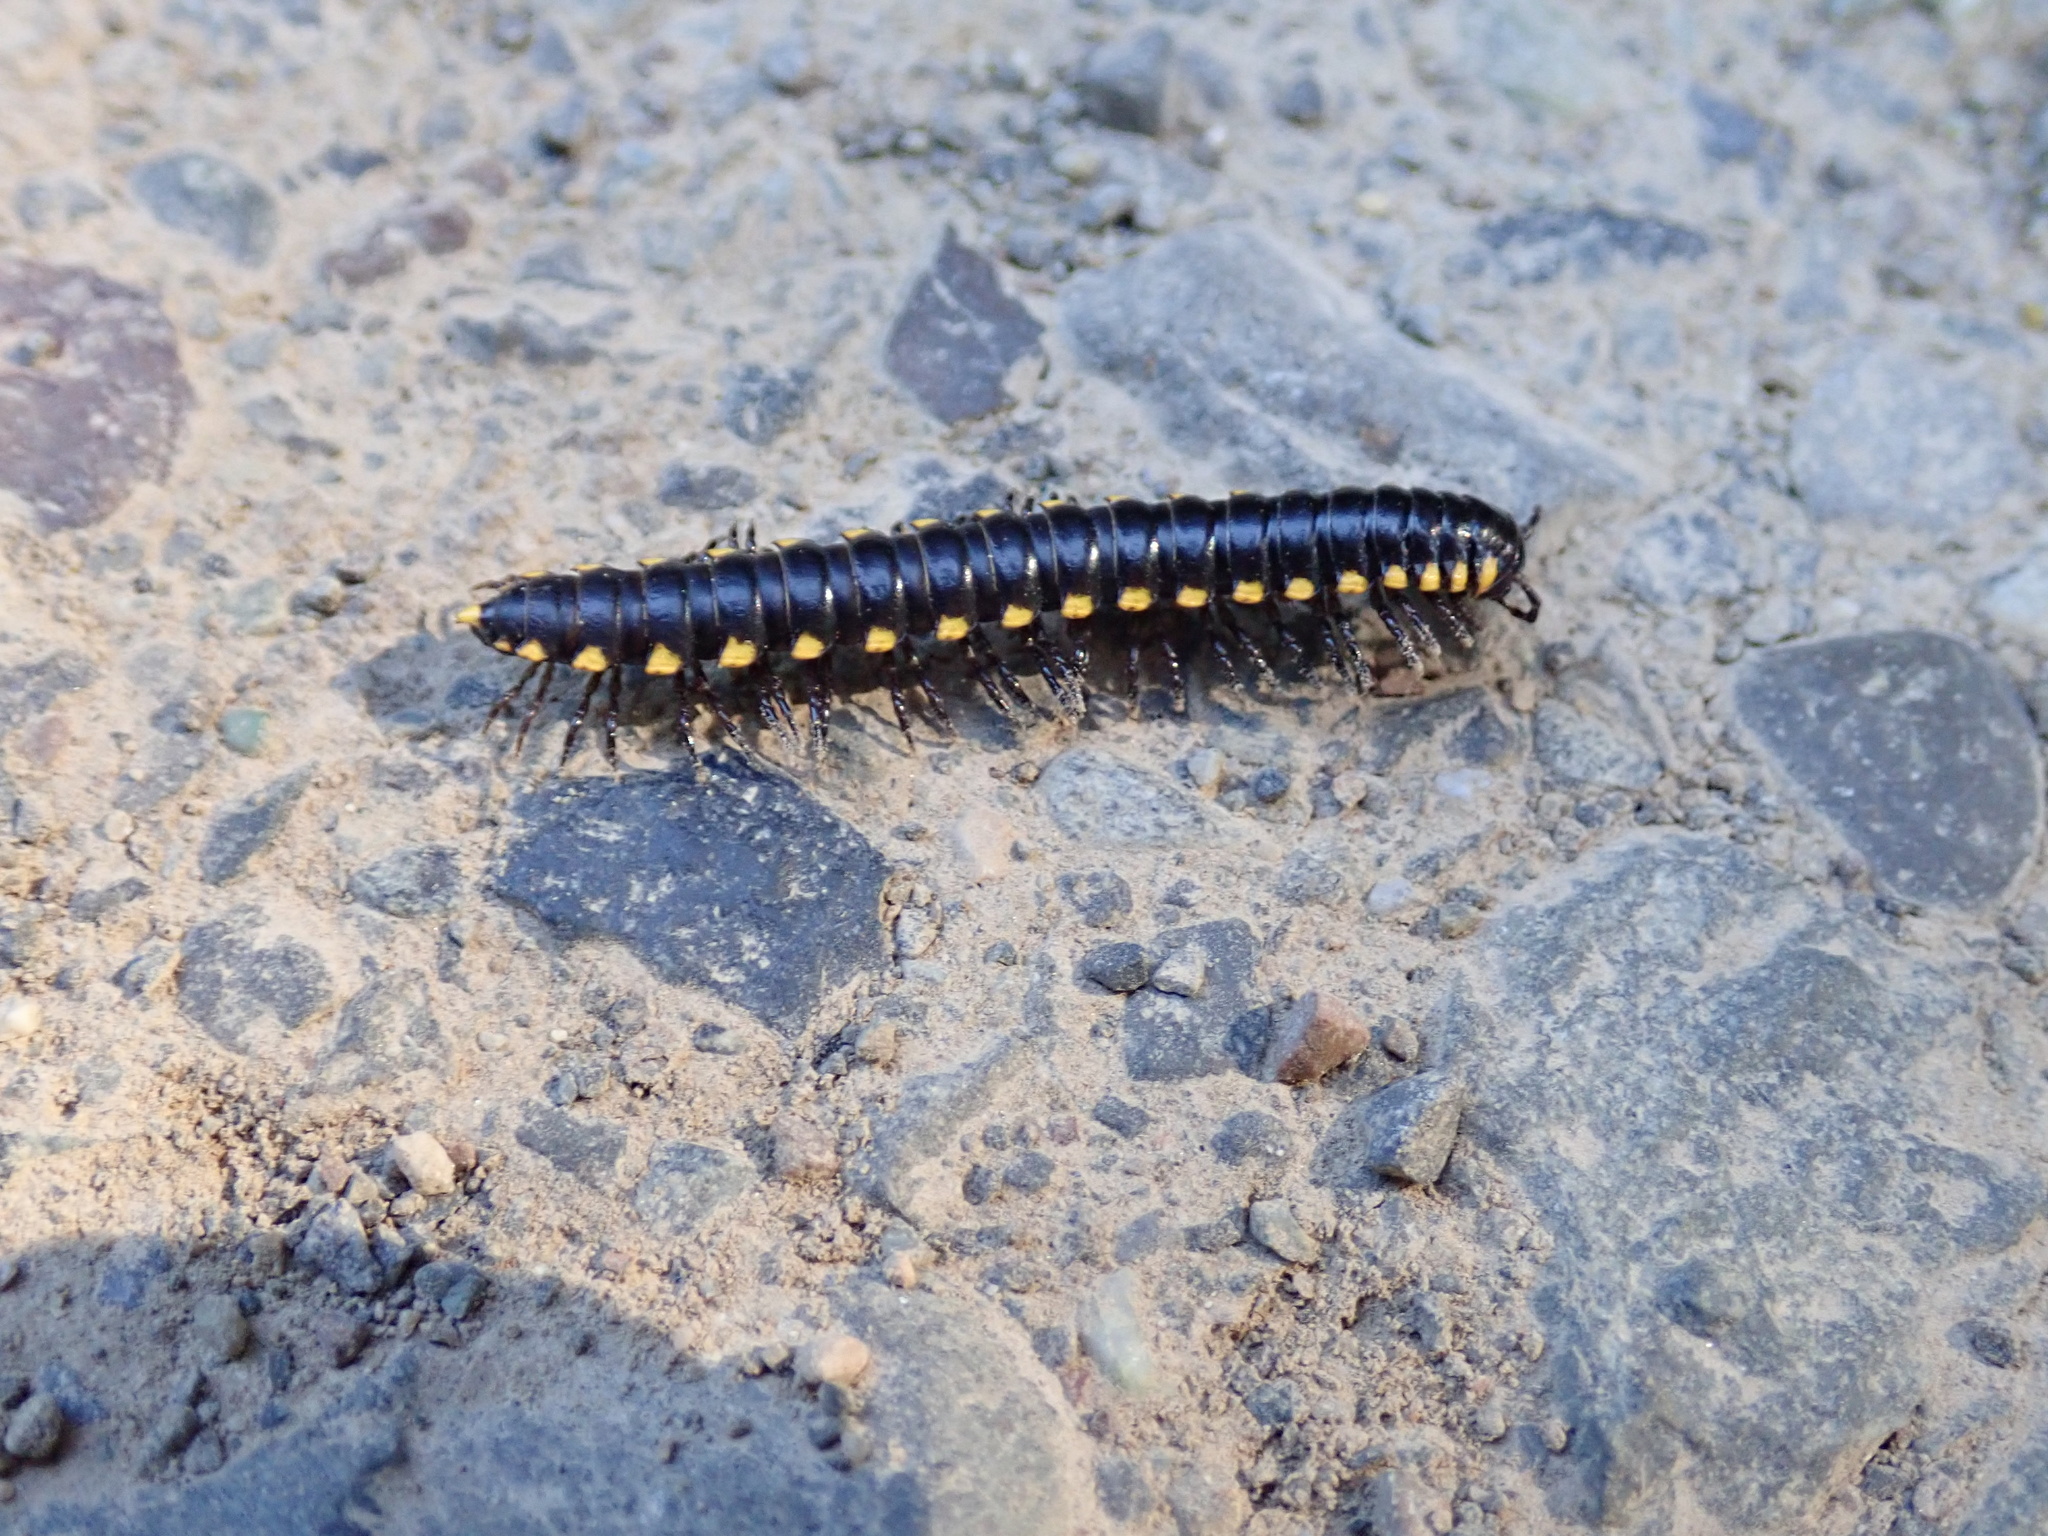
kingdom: Animalia
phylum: Arthropoda
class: Diplopoda
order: Polydesmida
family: Xystodesmidae
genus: Harpaphe
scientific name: Harpaphe haydeniana
